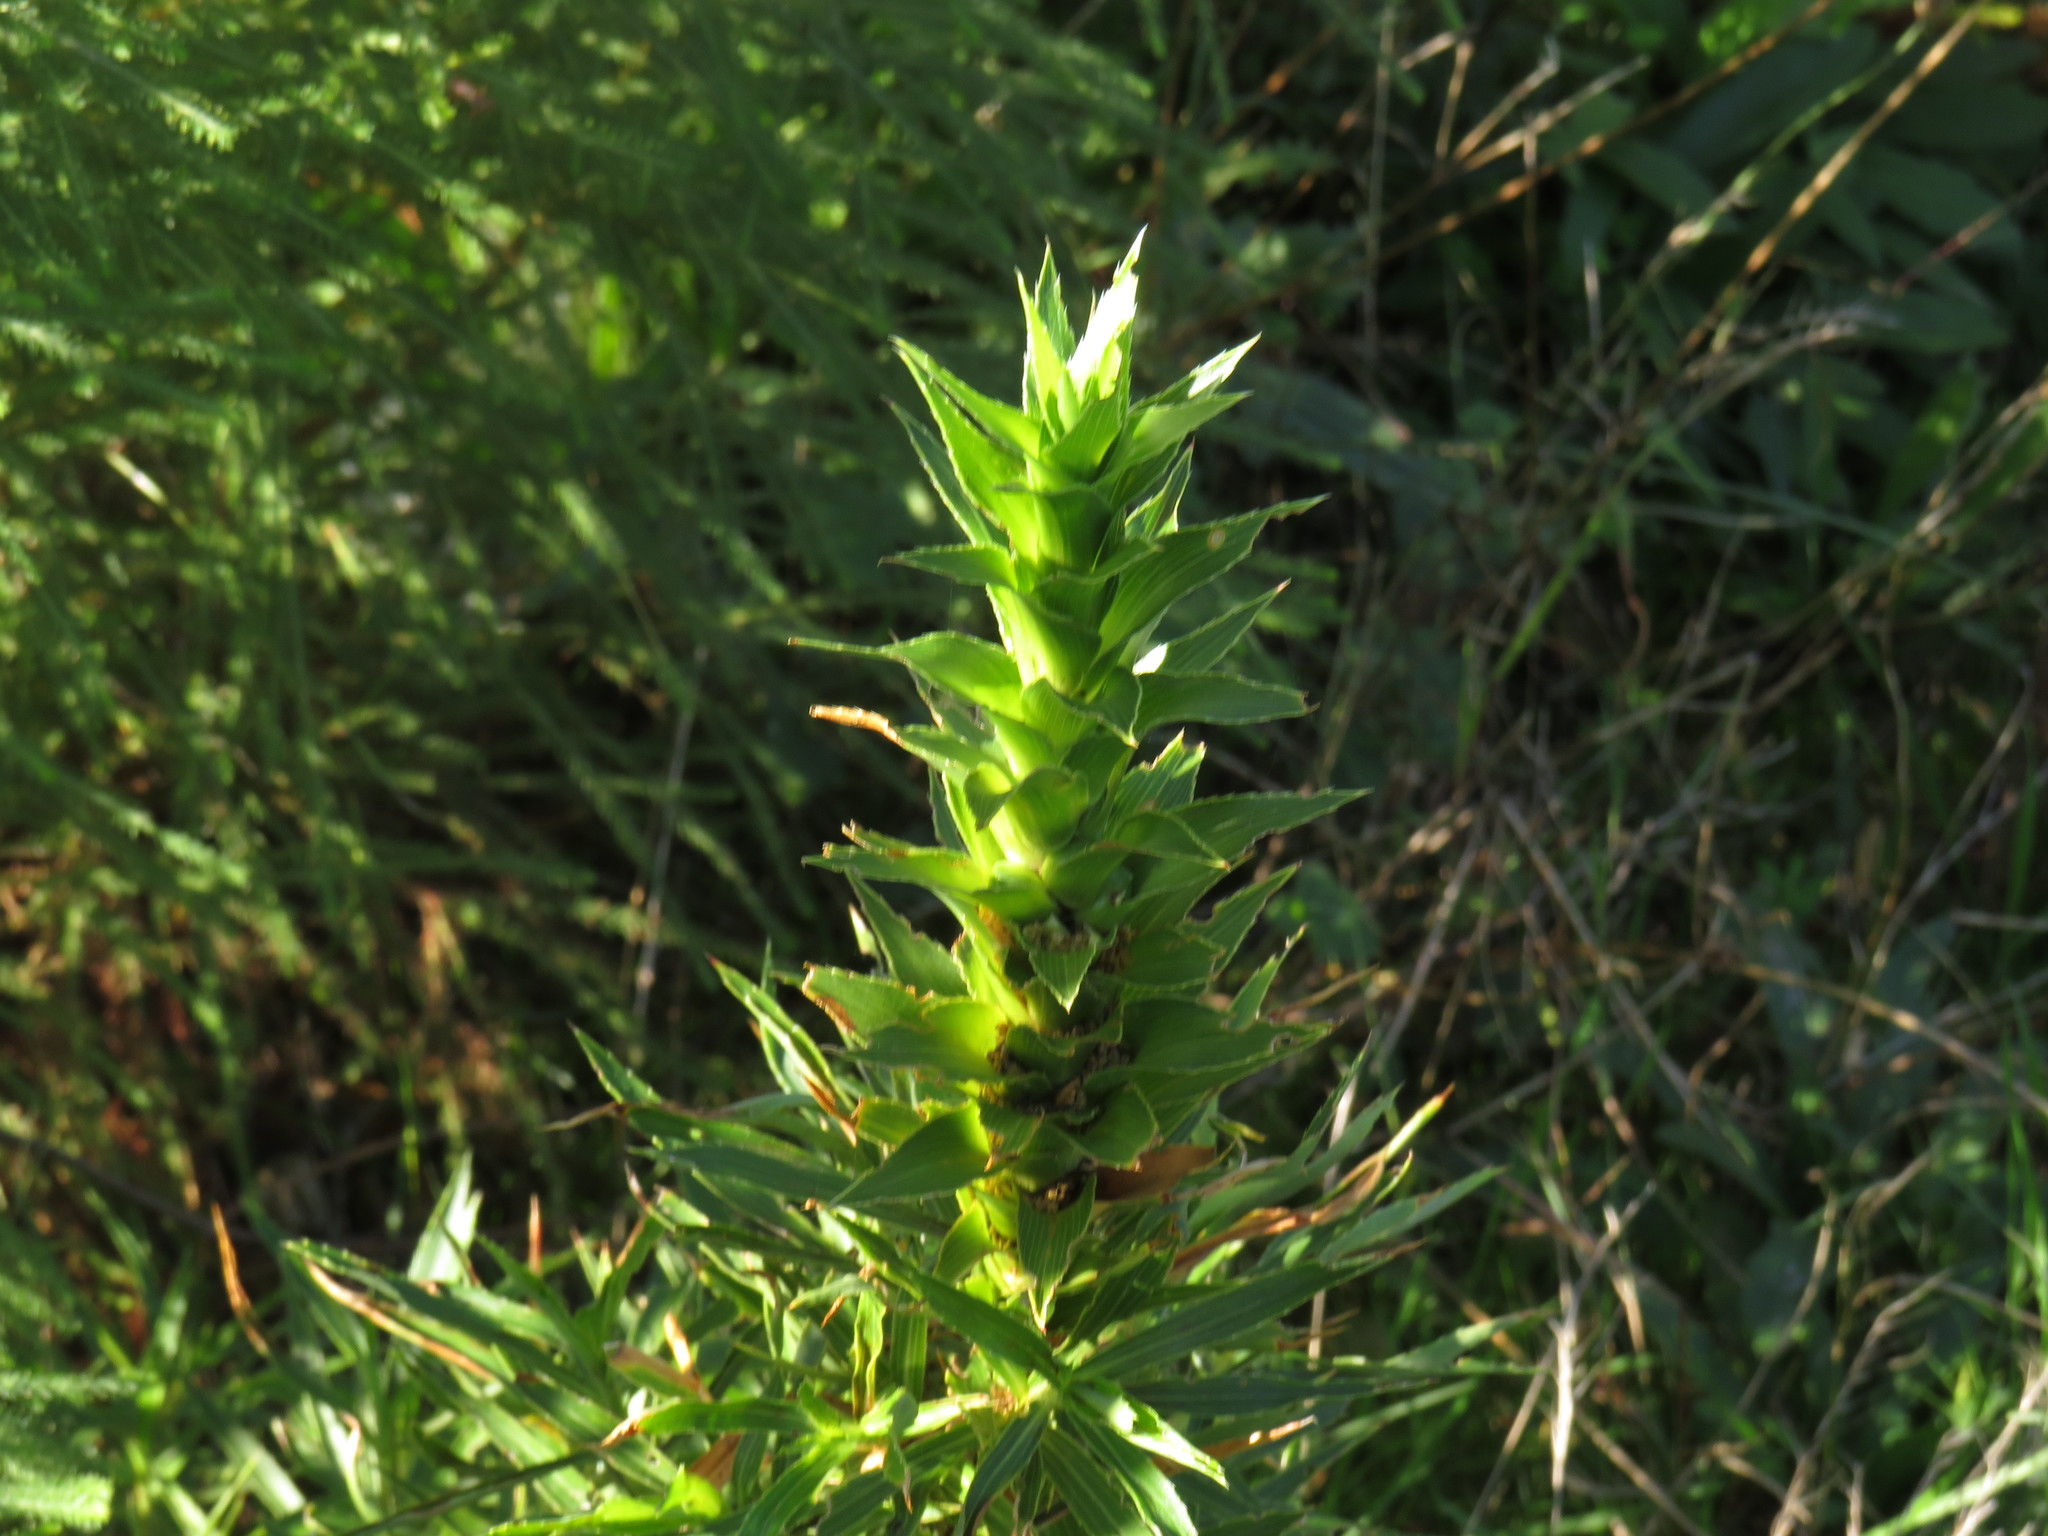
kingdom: Plantae
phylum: Tracheophyta
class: Magnoliopsida
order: Rosales
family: Rosaceae
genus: Cliffortia
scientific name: Cliffortia heterophylla
